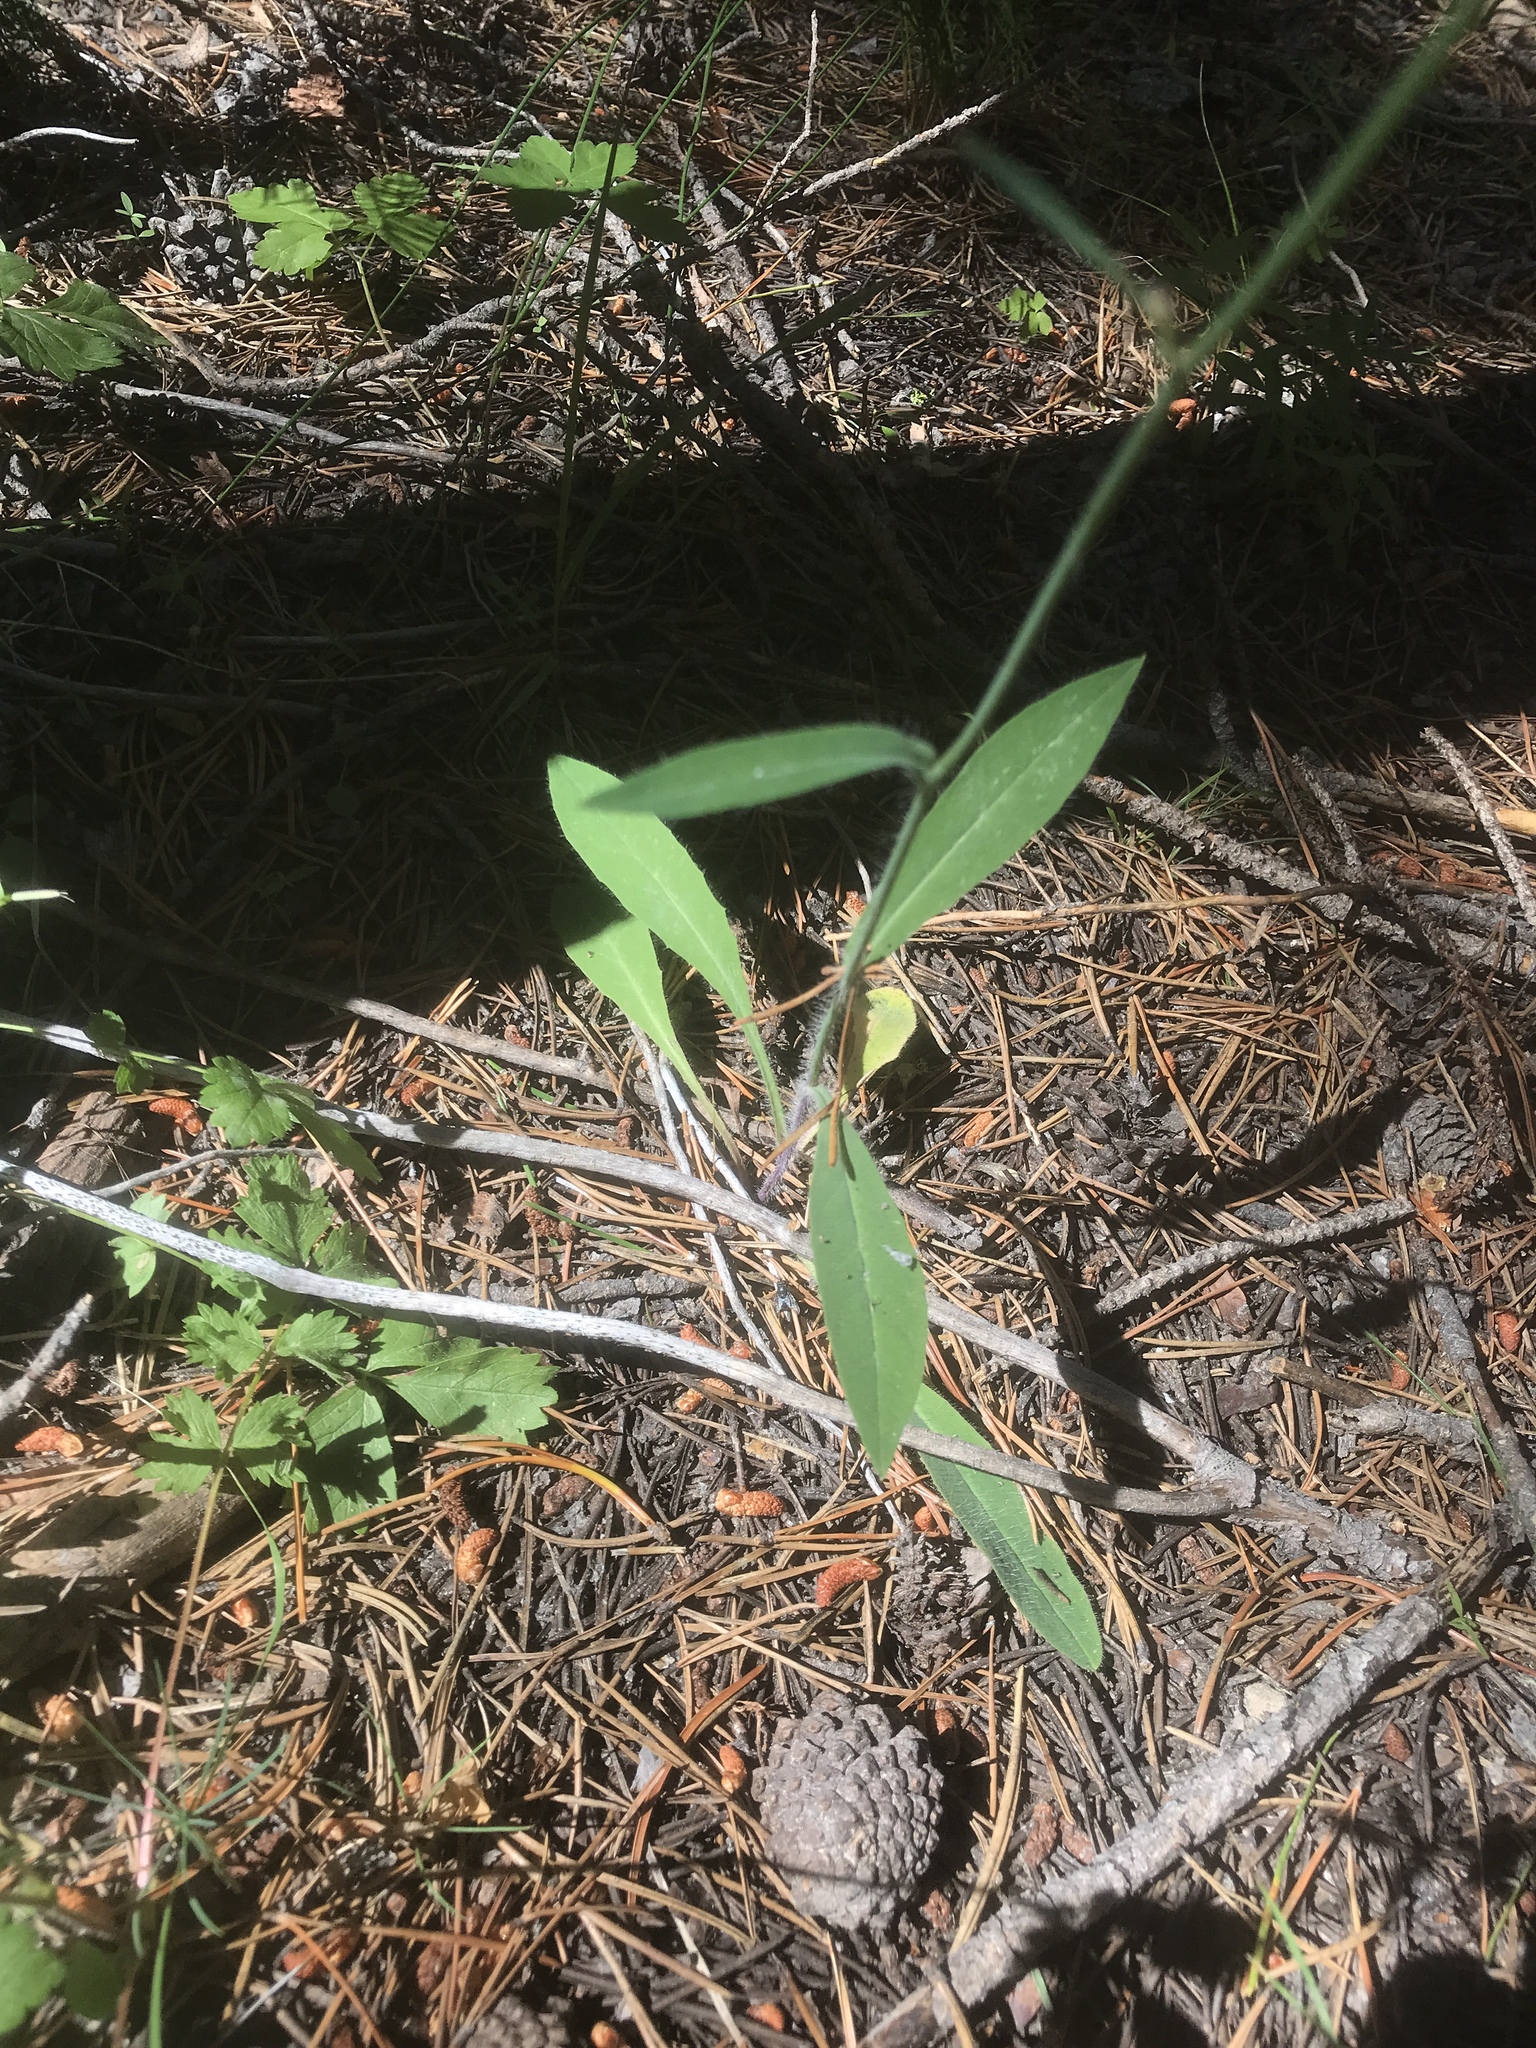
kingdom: Plantae
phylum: Tracheophyta
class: Magnoliopsida
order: Asterales
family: Asteraceae
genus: Hieracium
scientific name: Hieracium albiflorum
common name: White hawkweed
